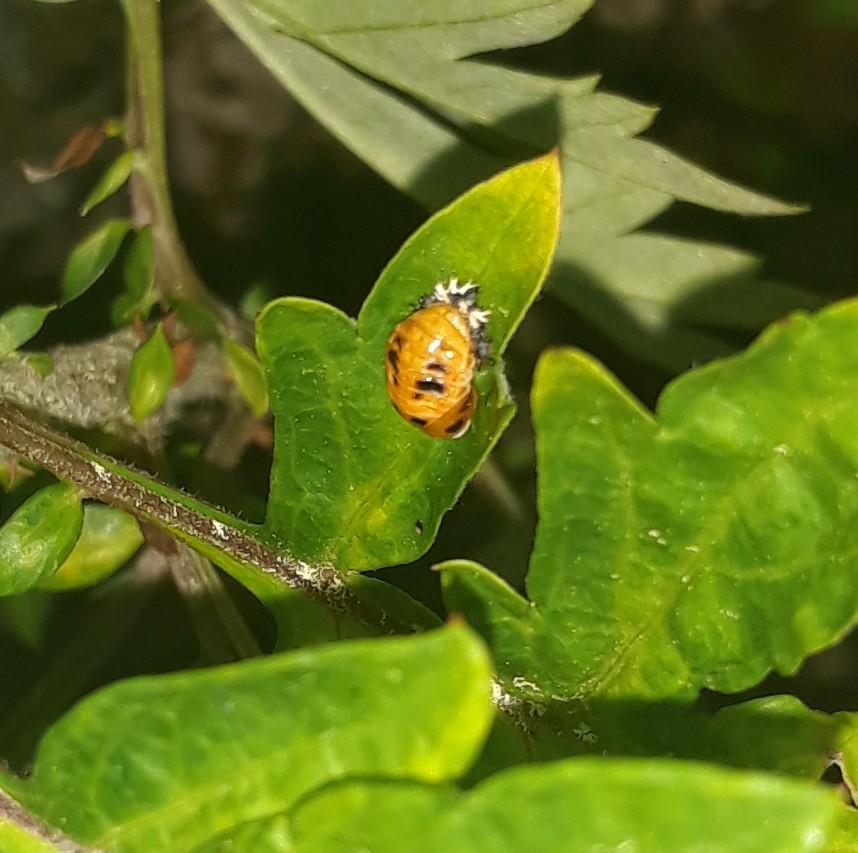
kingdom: Animalia
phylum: Arthropoda
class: Insecta
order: Coleoptera
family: Coccinellidae
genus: Harmonia
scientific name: Harmonia axyridis
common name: Harlequin ladybird
